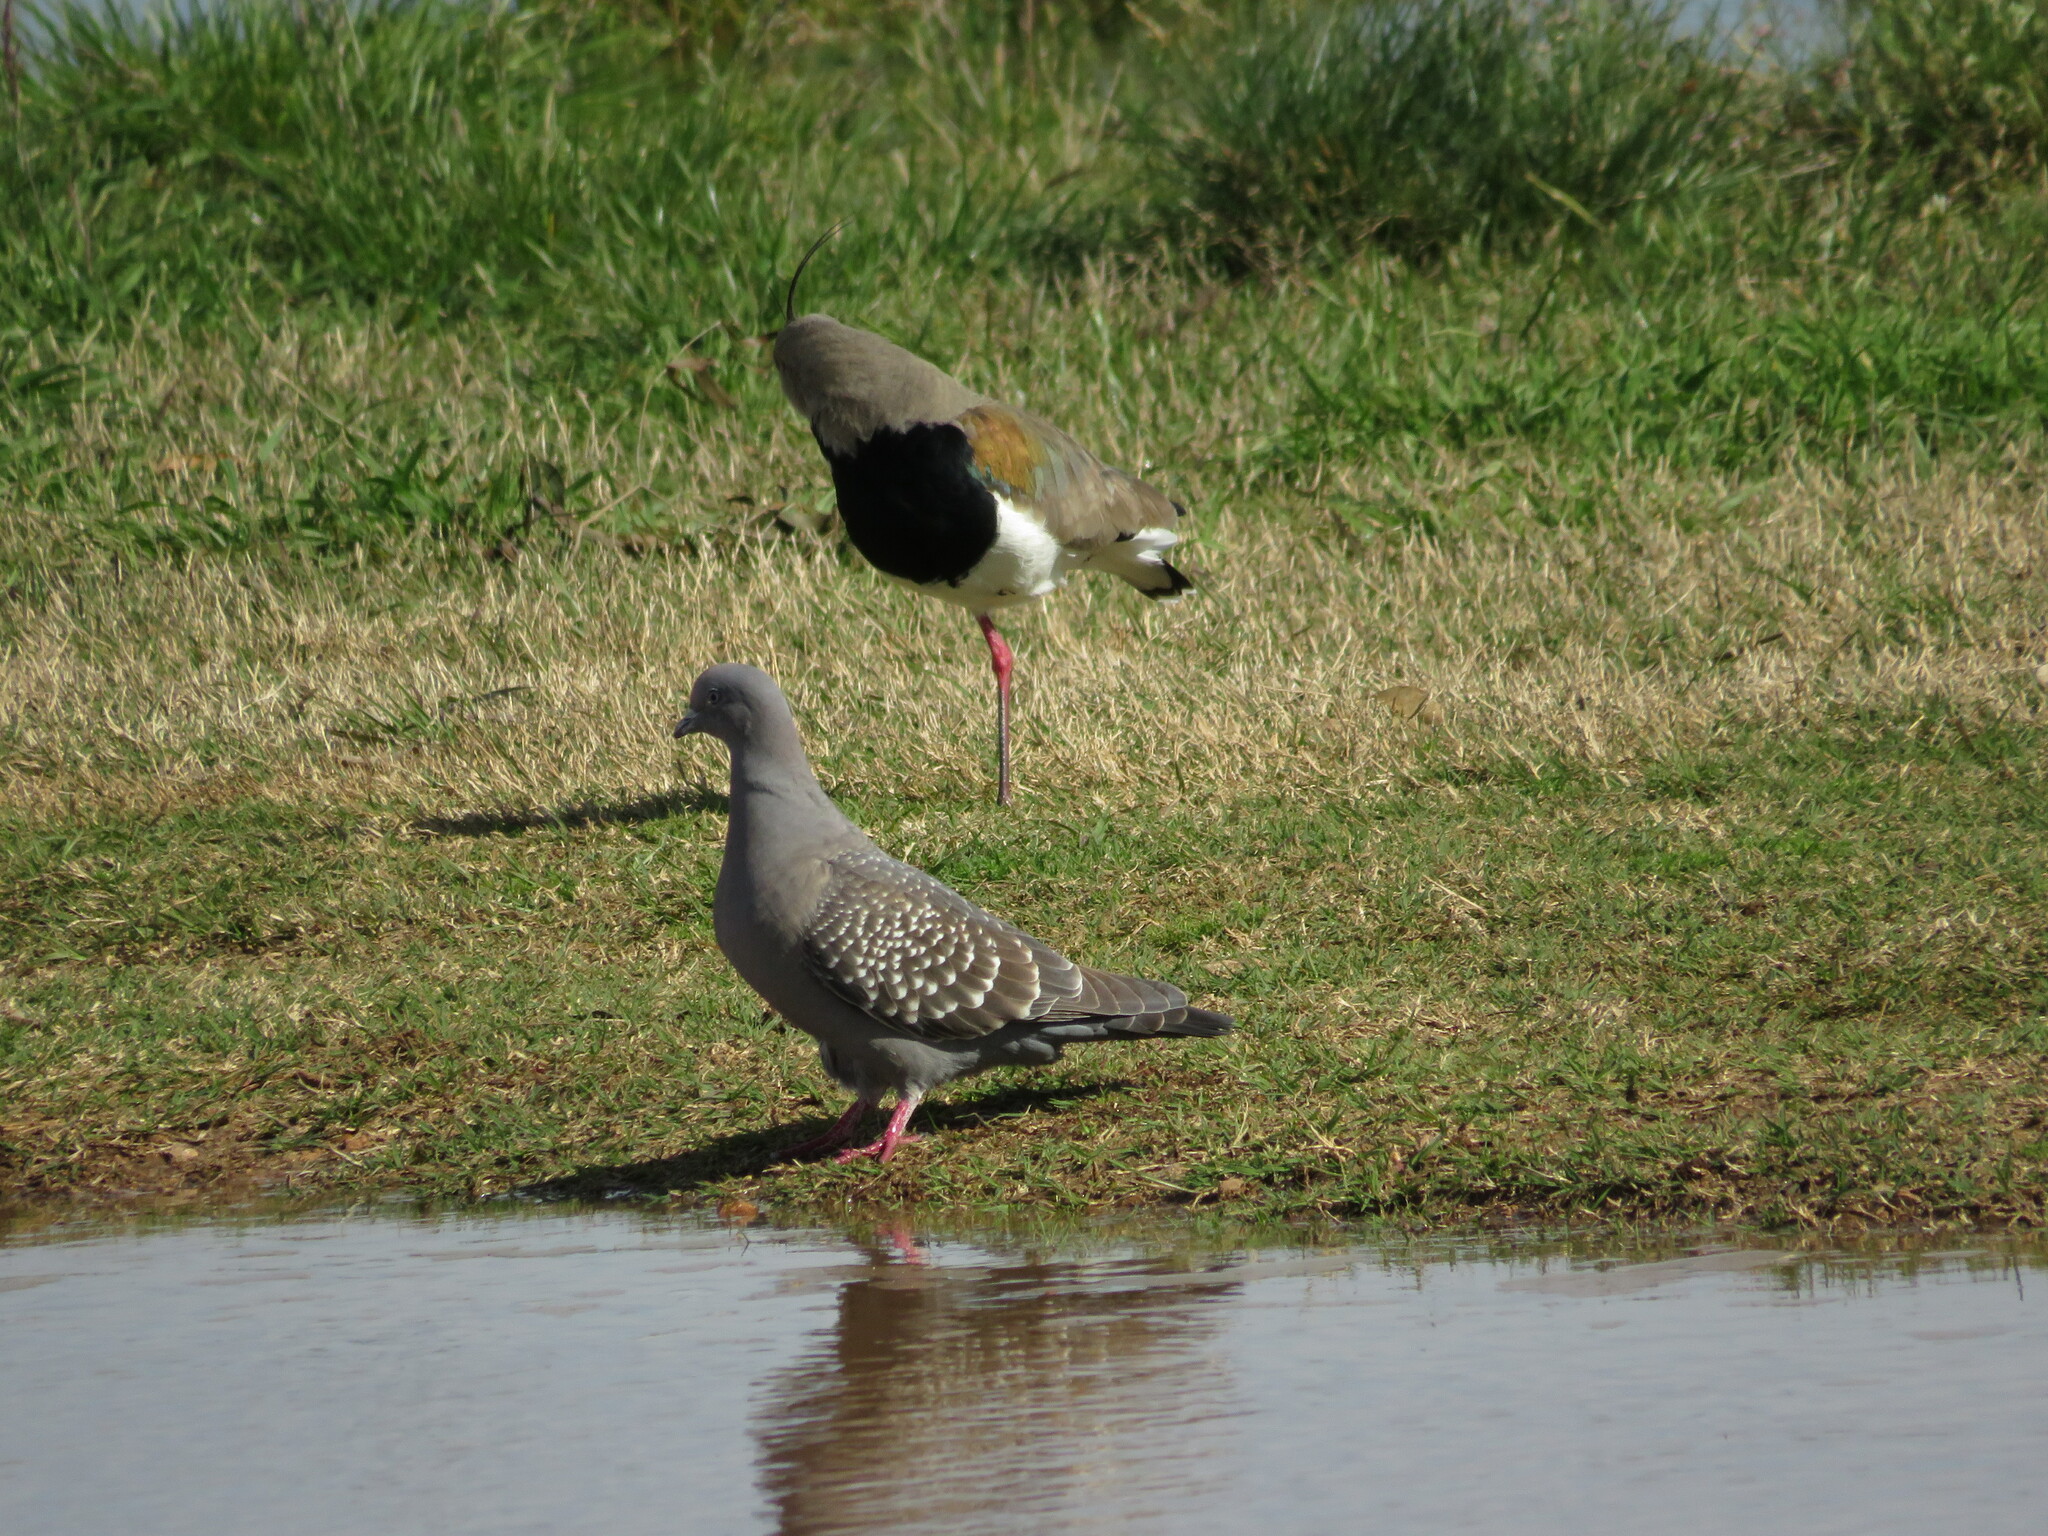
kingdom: Animalia
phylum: Chordata
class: Aves
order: Columbiformes
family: Columbidae
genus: Patagioenas
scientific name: Patagioenas maculosa
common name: Spot-winged pigeon
